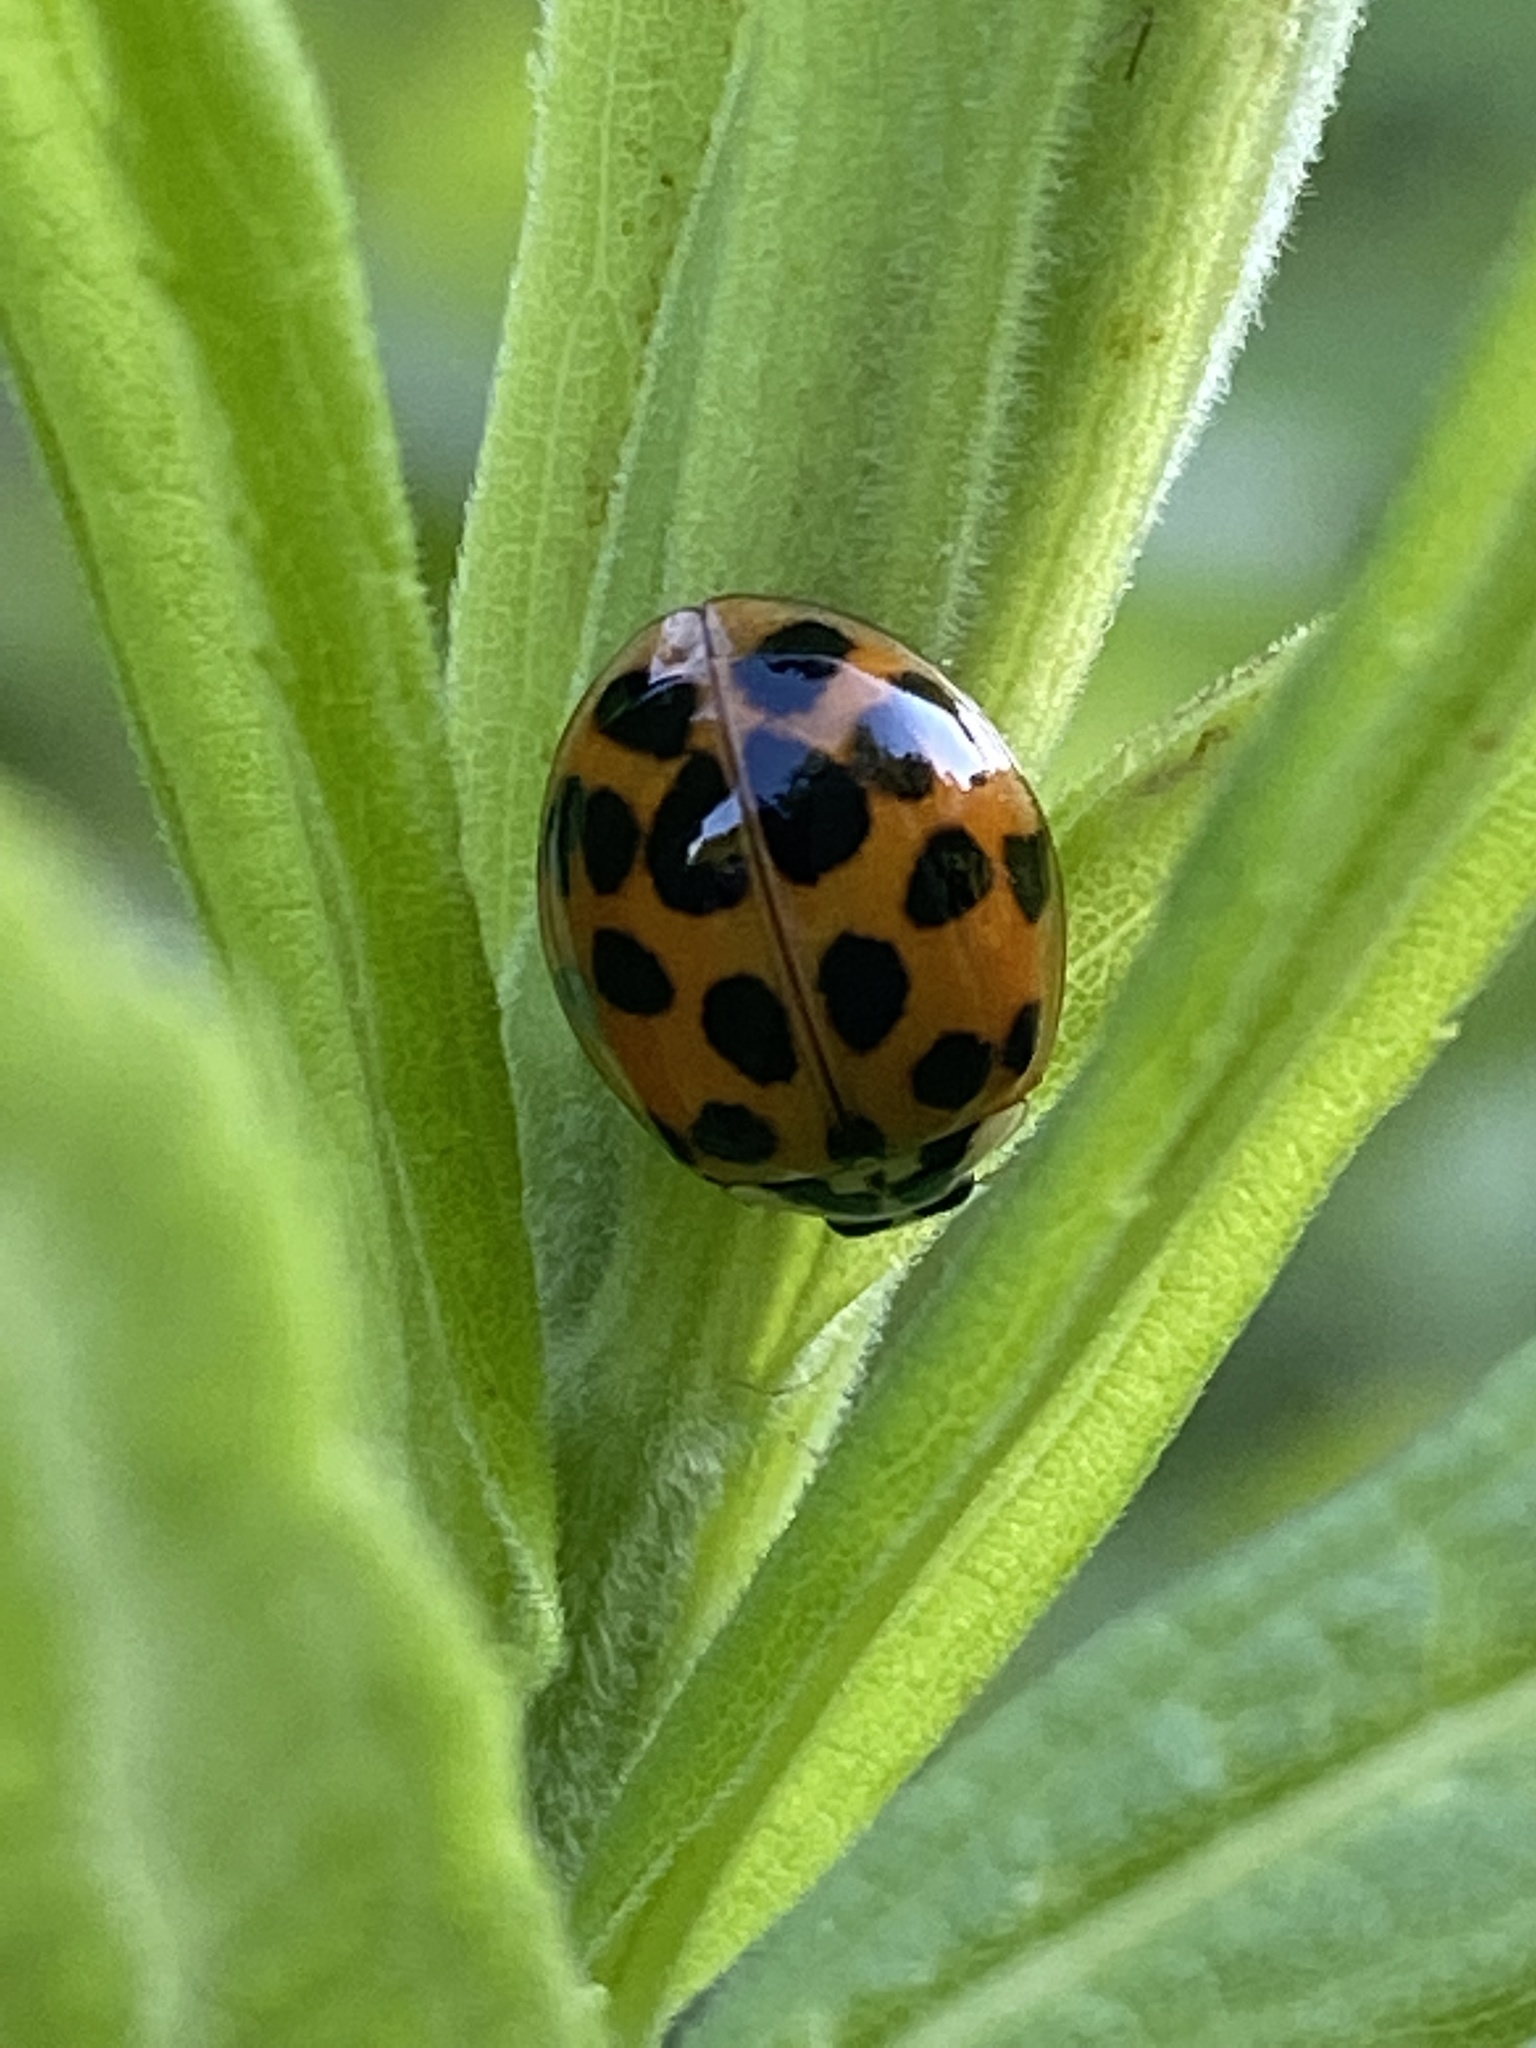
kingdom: Animalia
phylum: Arthropoda
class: Insecta
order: Coleoptera
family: Coccinellidae
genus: Harmonia
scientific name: Harmonia axyridis
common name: Harlequin ladybird
